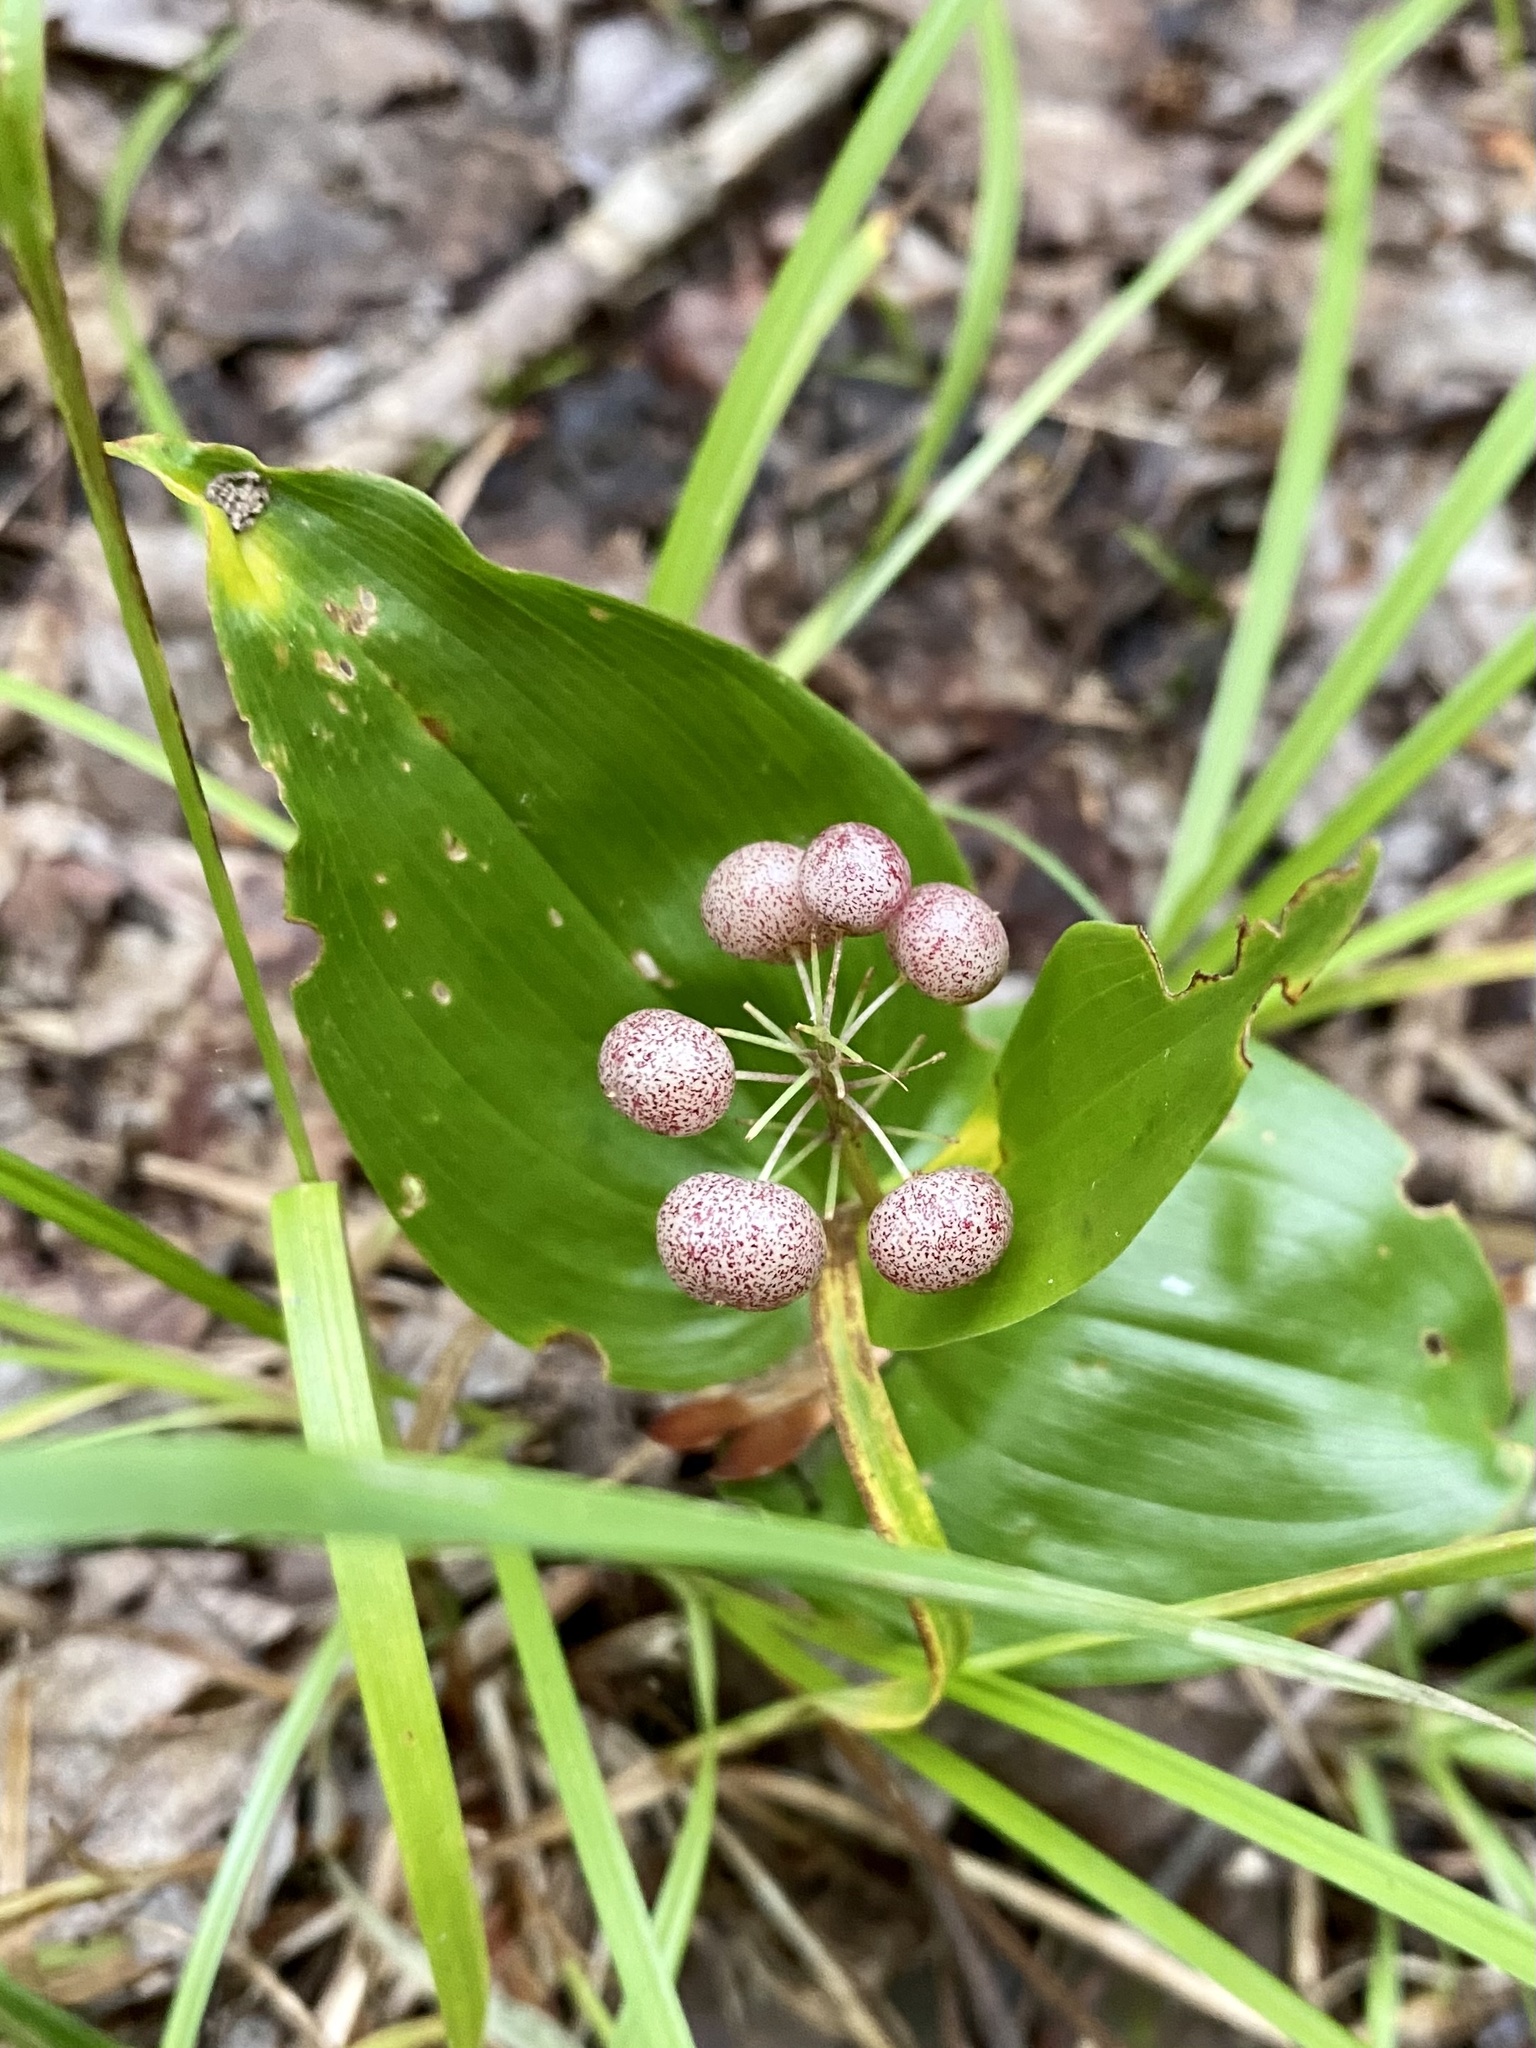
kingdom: Plantae
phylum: Tracheophyta
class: Liliopsida
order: Asparagales
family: Asparagaceae
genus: Maianthemum
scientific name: Maianthemum canadense
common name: False lily-of-the-valley
